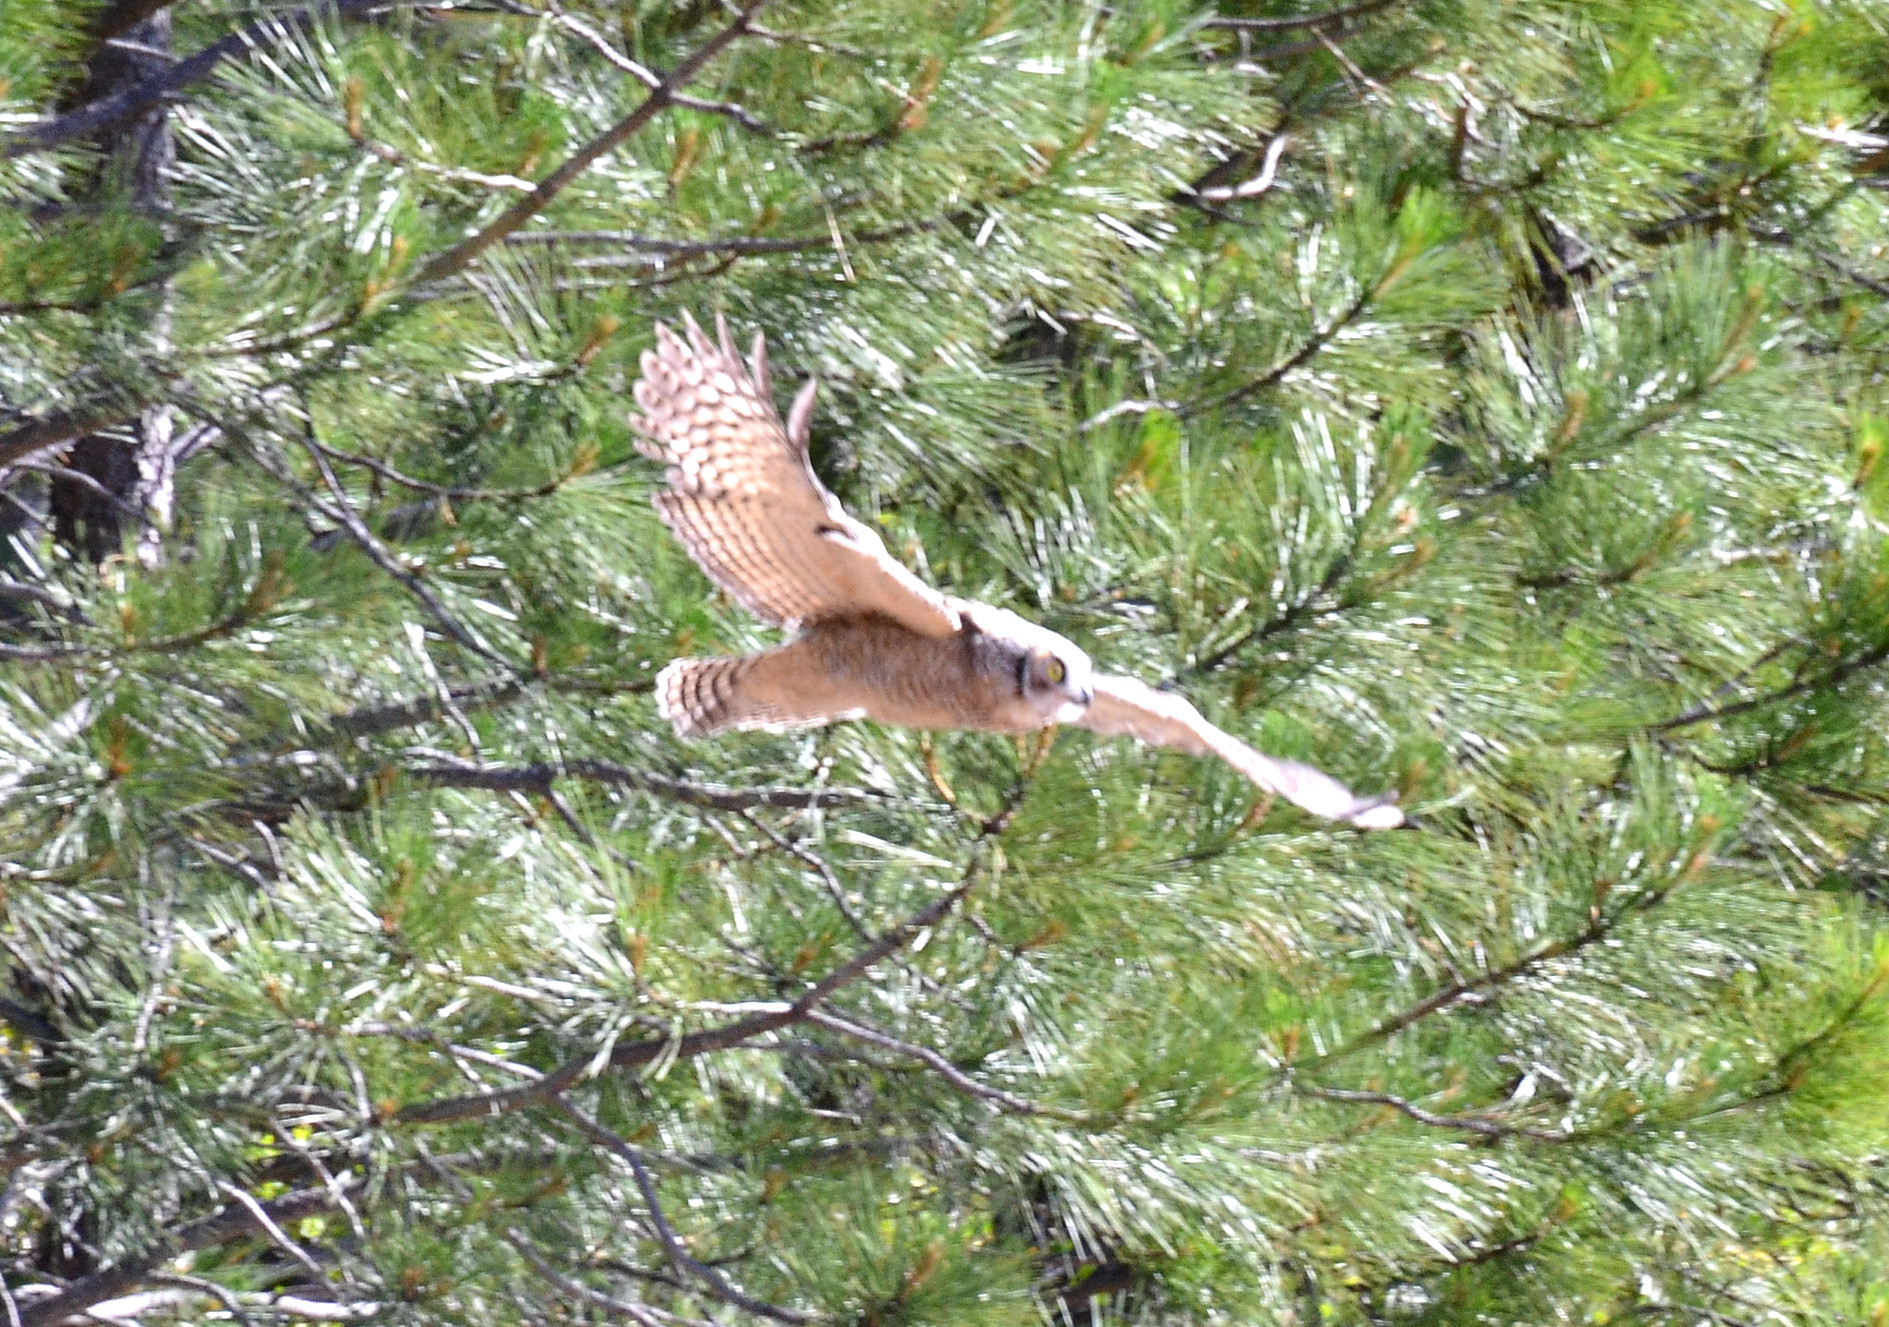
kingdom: Animalia
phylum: Chordata
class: Aves
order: Strigiformes
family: Strigidae
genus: Bubo
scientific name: Bubo virginianus
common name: Great horned owl
